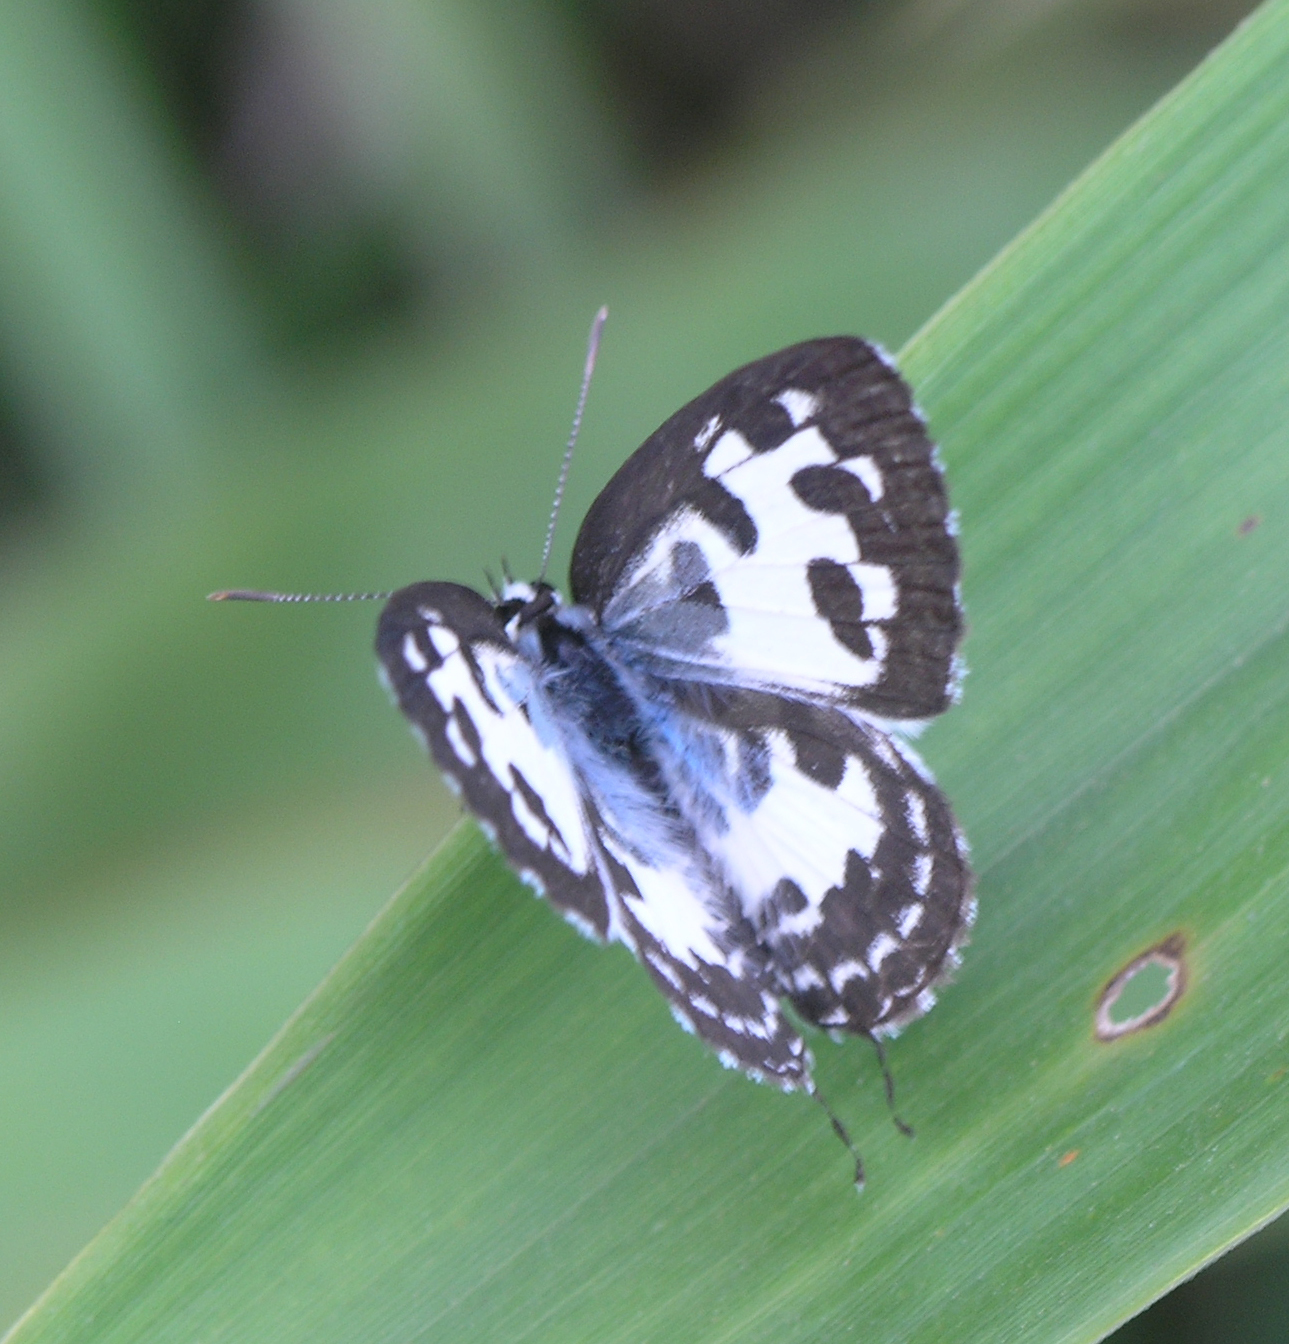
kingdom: Animalia
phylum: Arthropoda
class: Insecta
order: Lepidoptera
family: Lycaenidae
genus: Castalius
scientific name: Castalius rosimon
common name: Common pierrot
